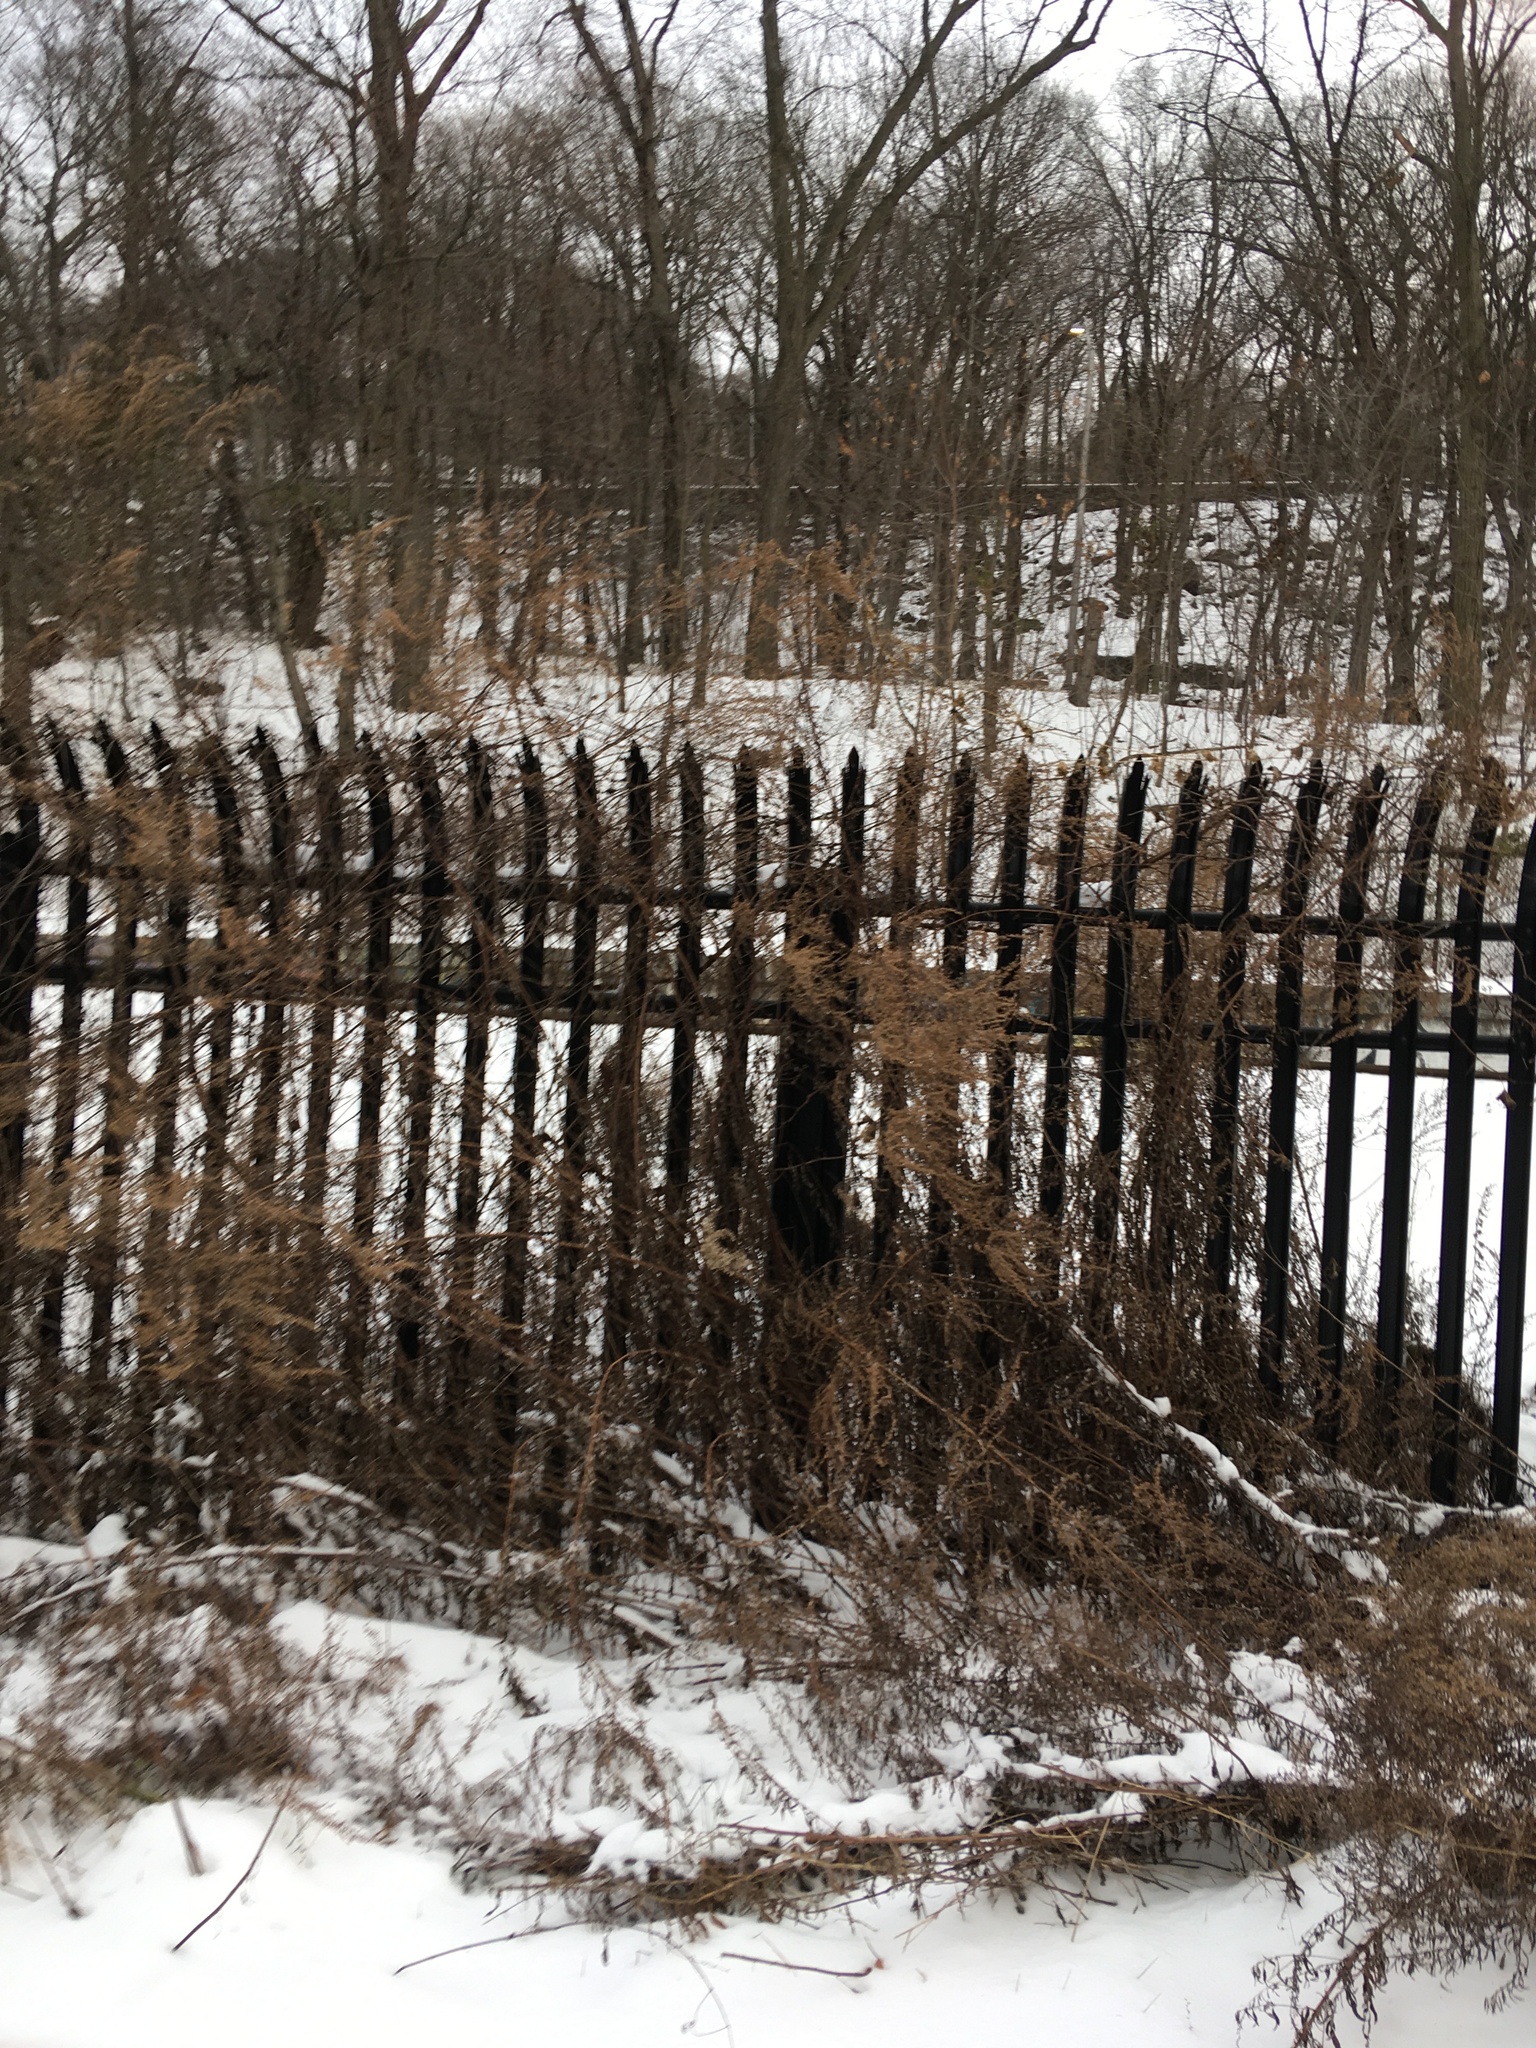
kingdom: Plantae
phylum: Tracheophyta
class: Magnoliopsida
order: Asterales
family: Asteraceae
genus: Artemisia
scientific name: Artemisia vulgaris
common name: Mugwort
